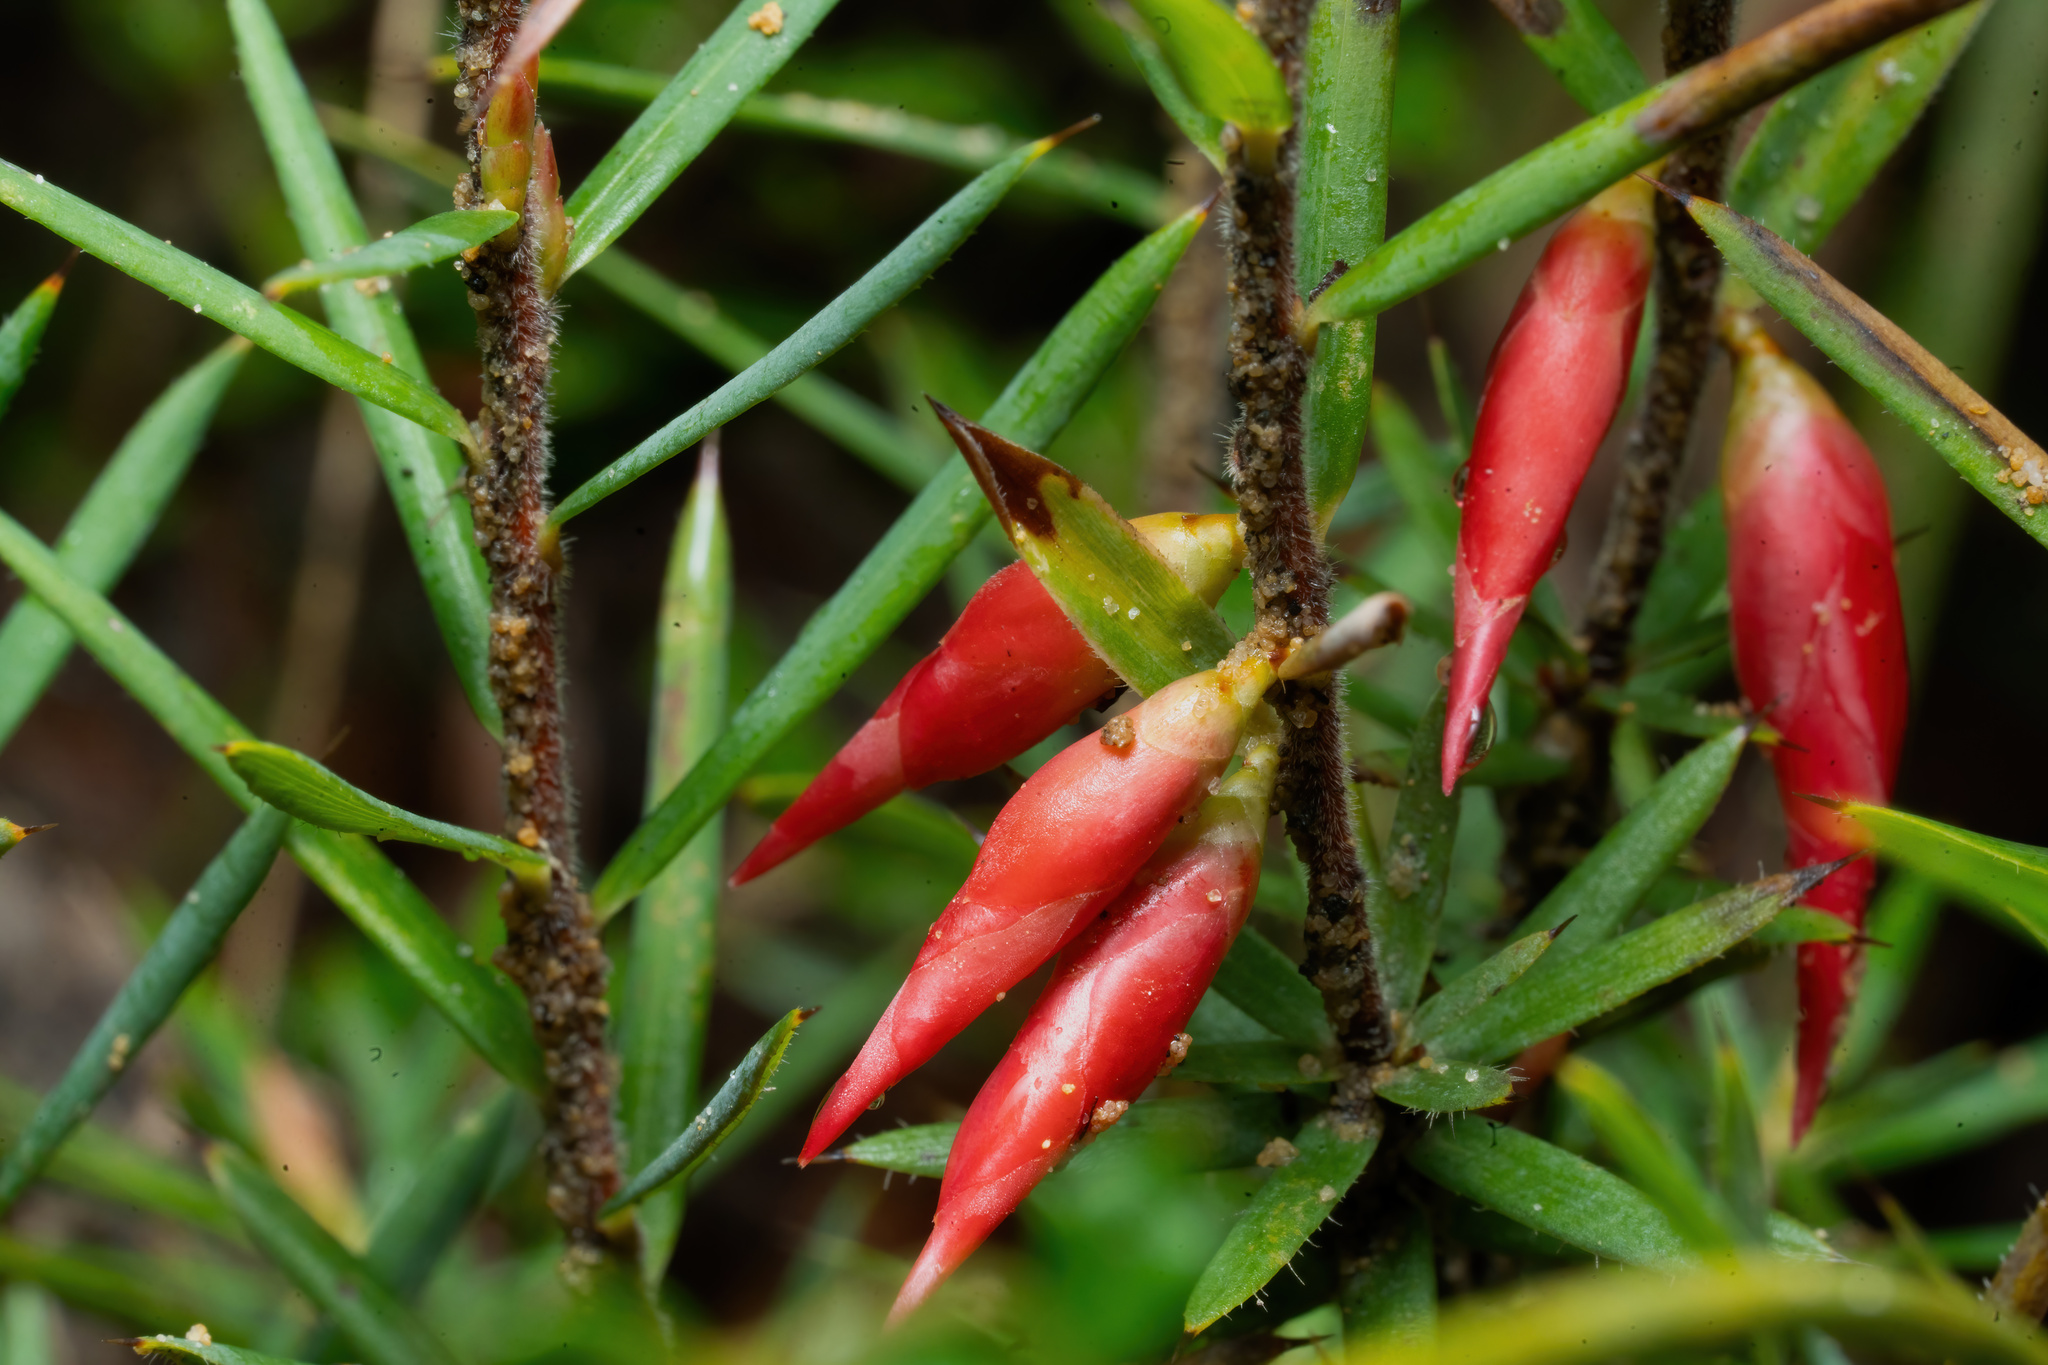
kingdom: Plantae
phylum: Tracheophyta
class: Magnoliopsida
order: Ericales
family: Ericaceae
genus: Stenanthera
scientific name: Stenanthera conostephioides
